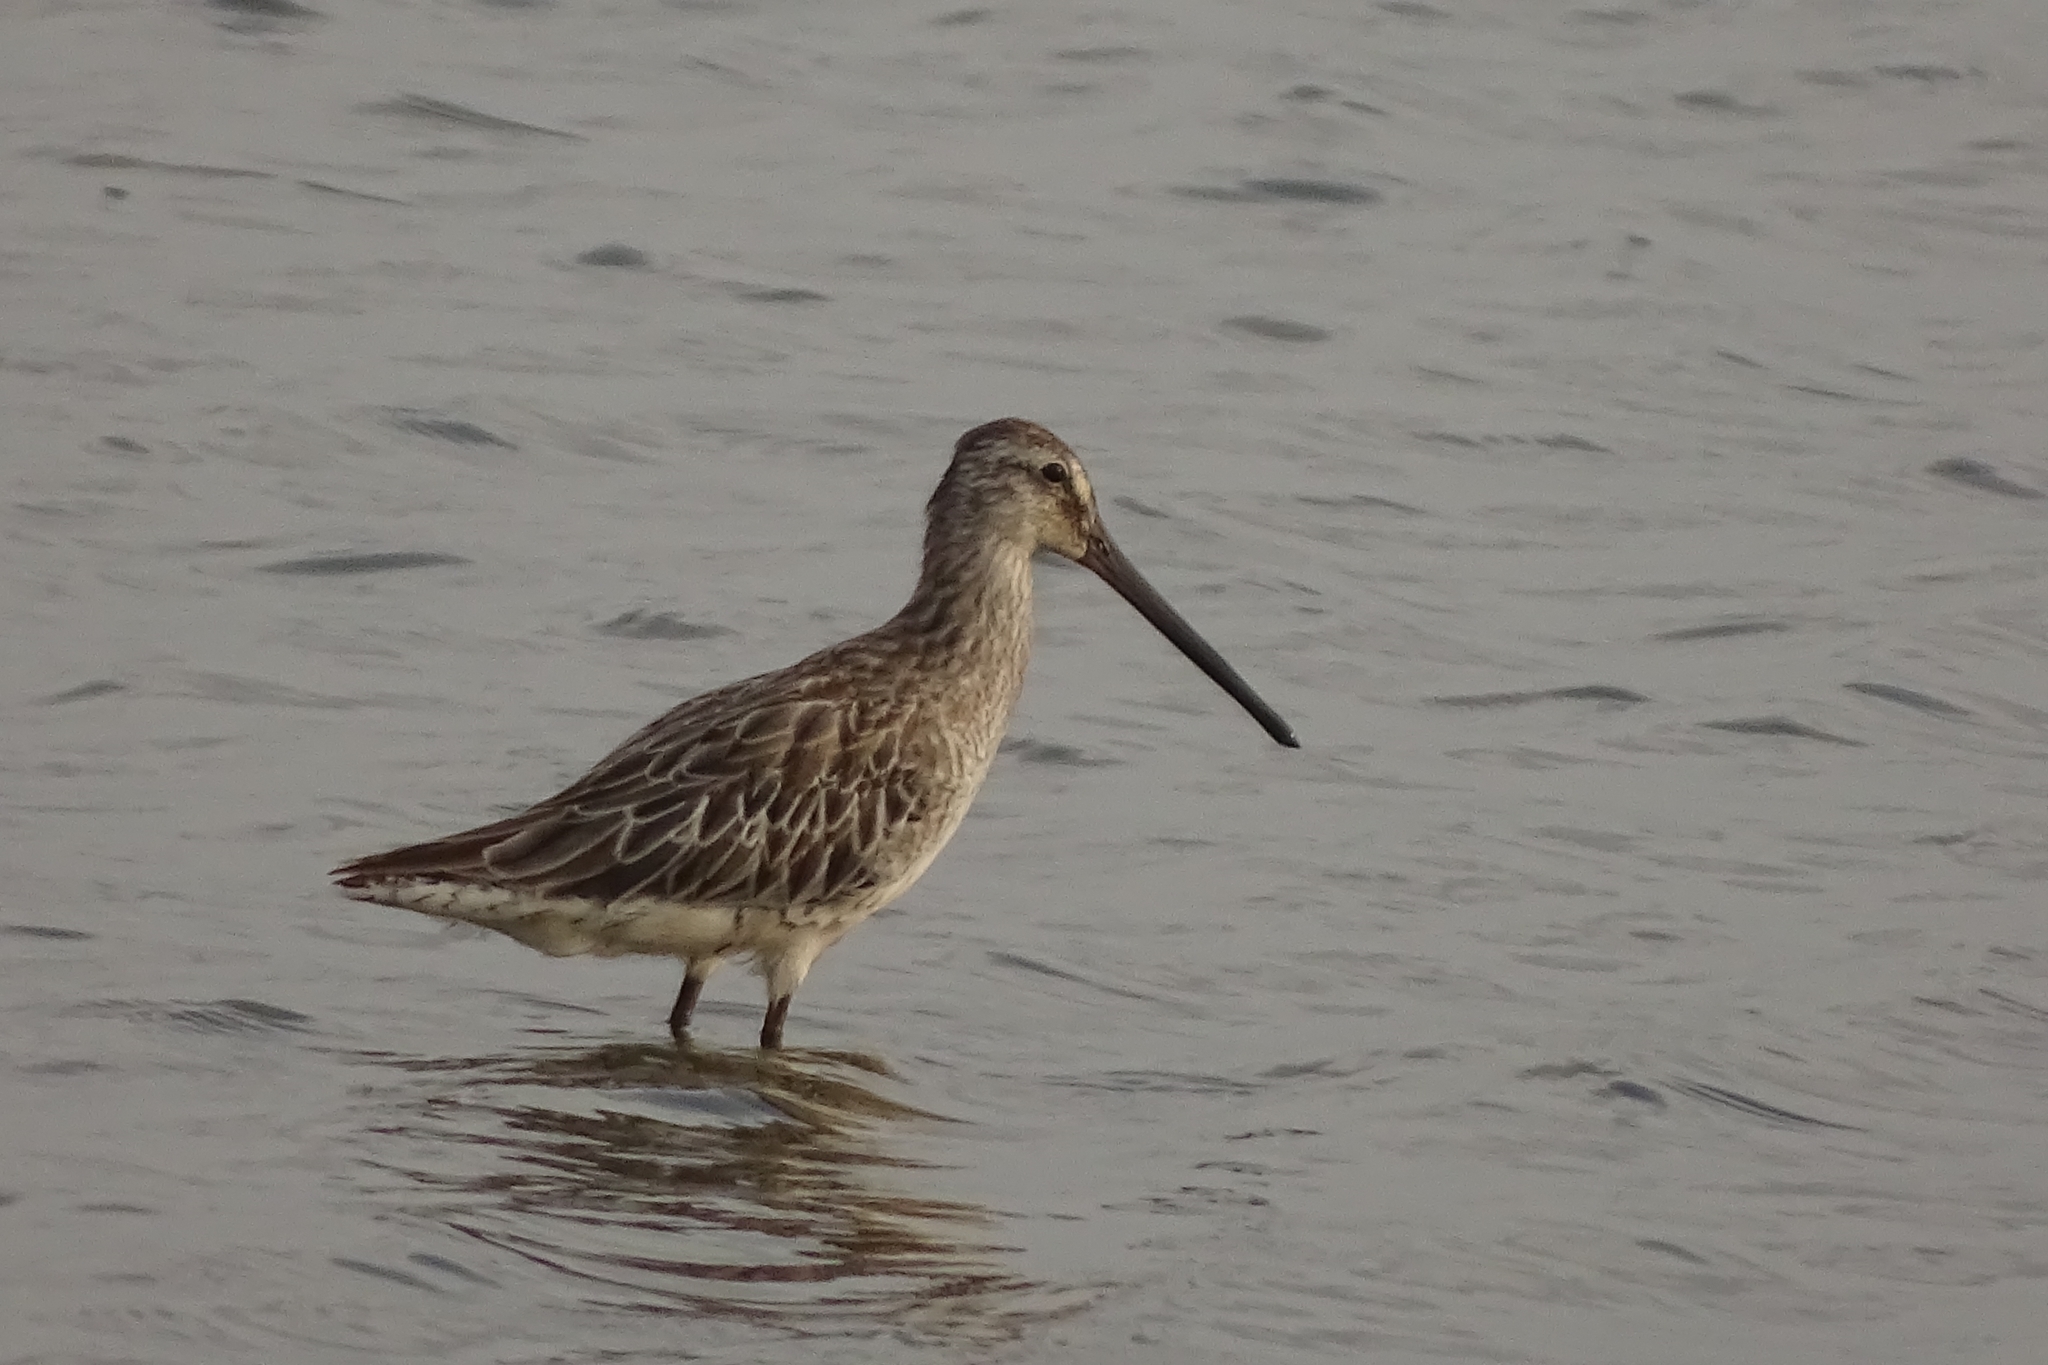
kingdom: Animalia
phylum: Chordata
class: Aves
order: Charadriiformes
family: Scolopacidae
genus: Limnodromus
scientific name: Limnodromus semipalmatus
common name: Asian dowitcher
